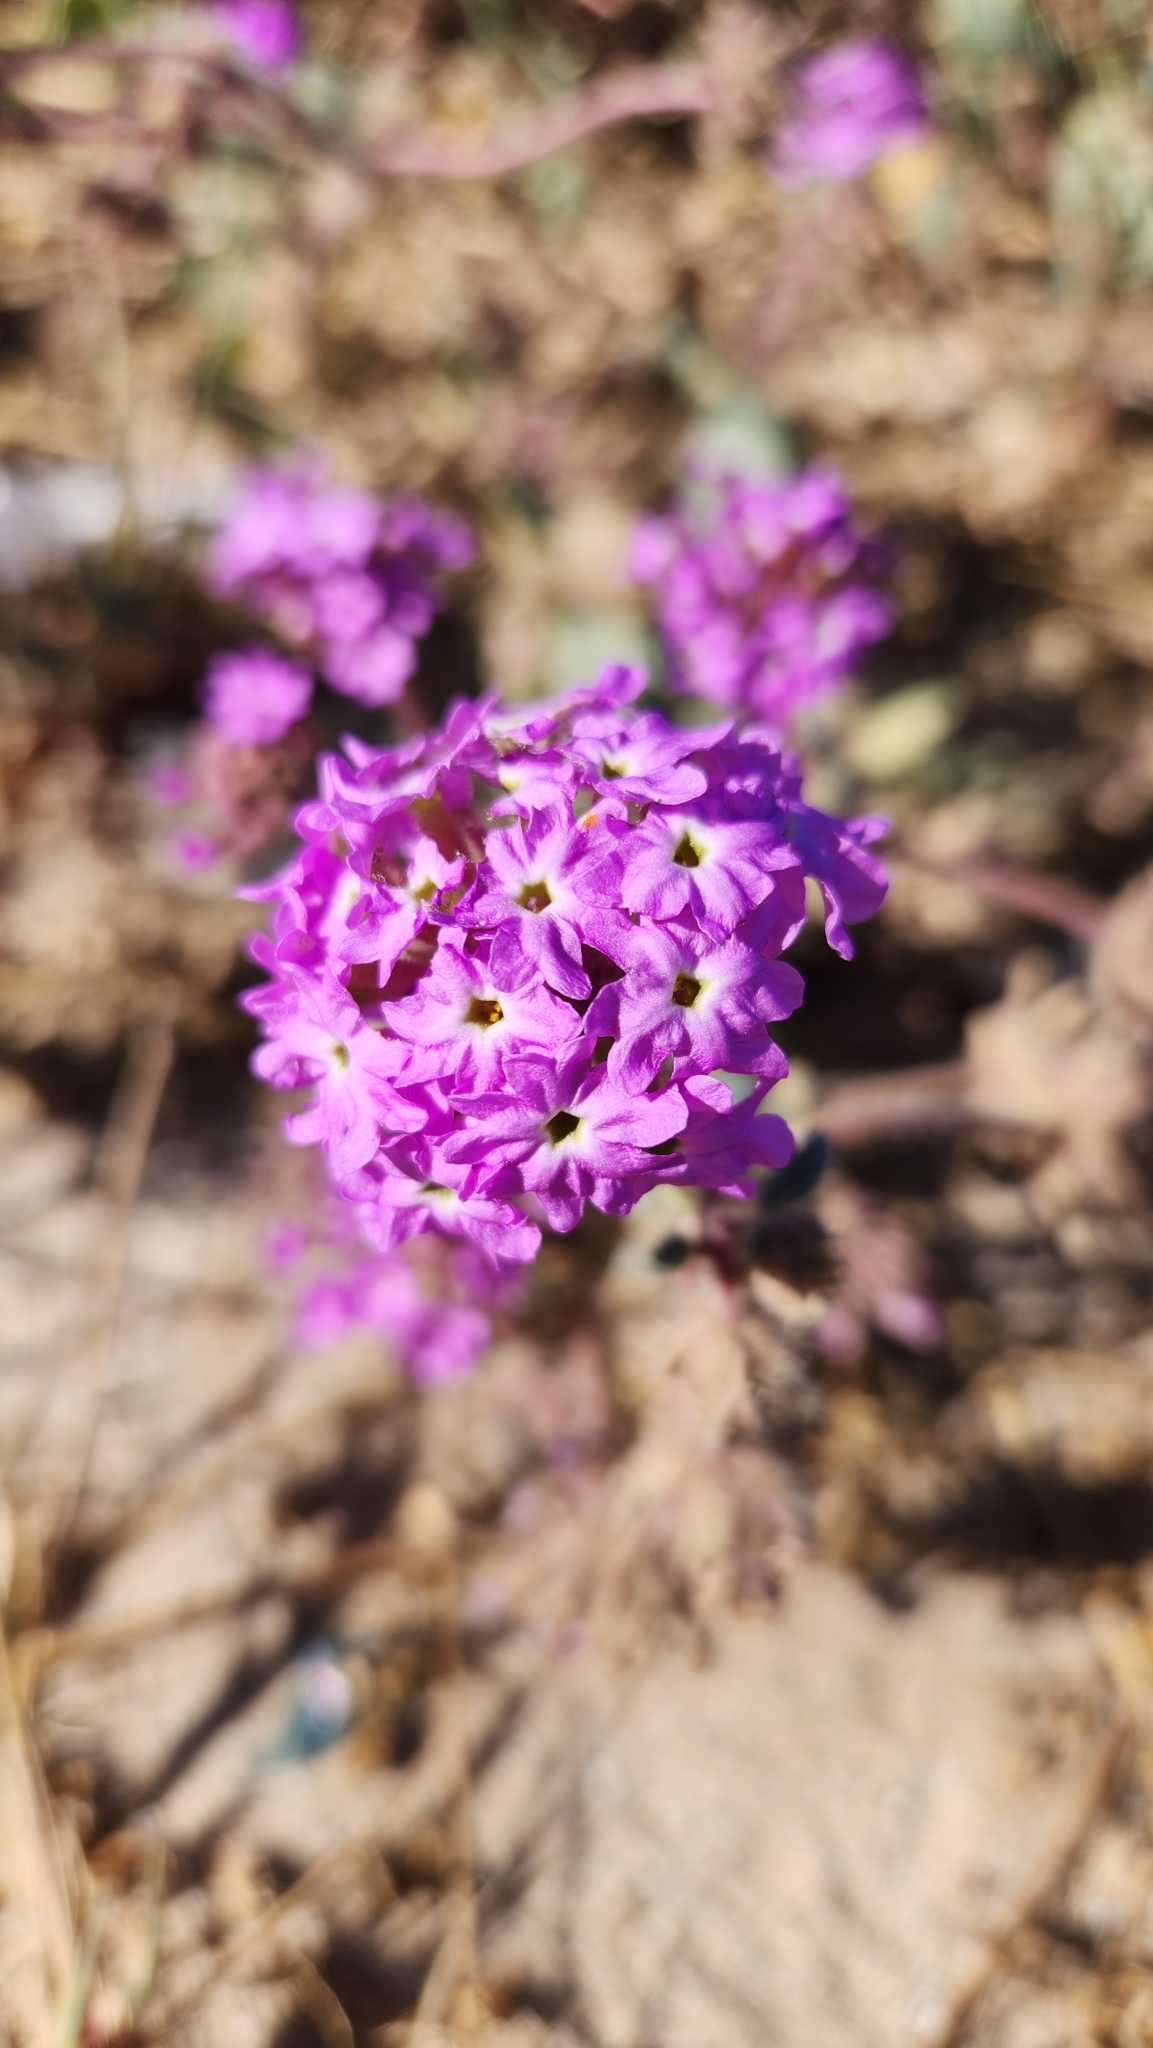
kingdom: Plantae
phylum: Tracheophyta
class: Magnoliopsida
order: Caryophyllales
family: Nyctaginaceae
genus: Abronia
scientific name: Abronia villosa
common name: Desert sand-verbena
